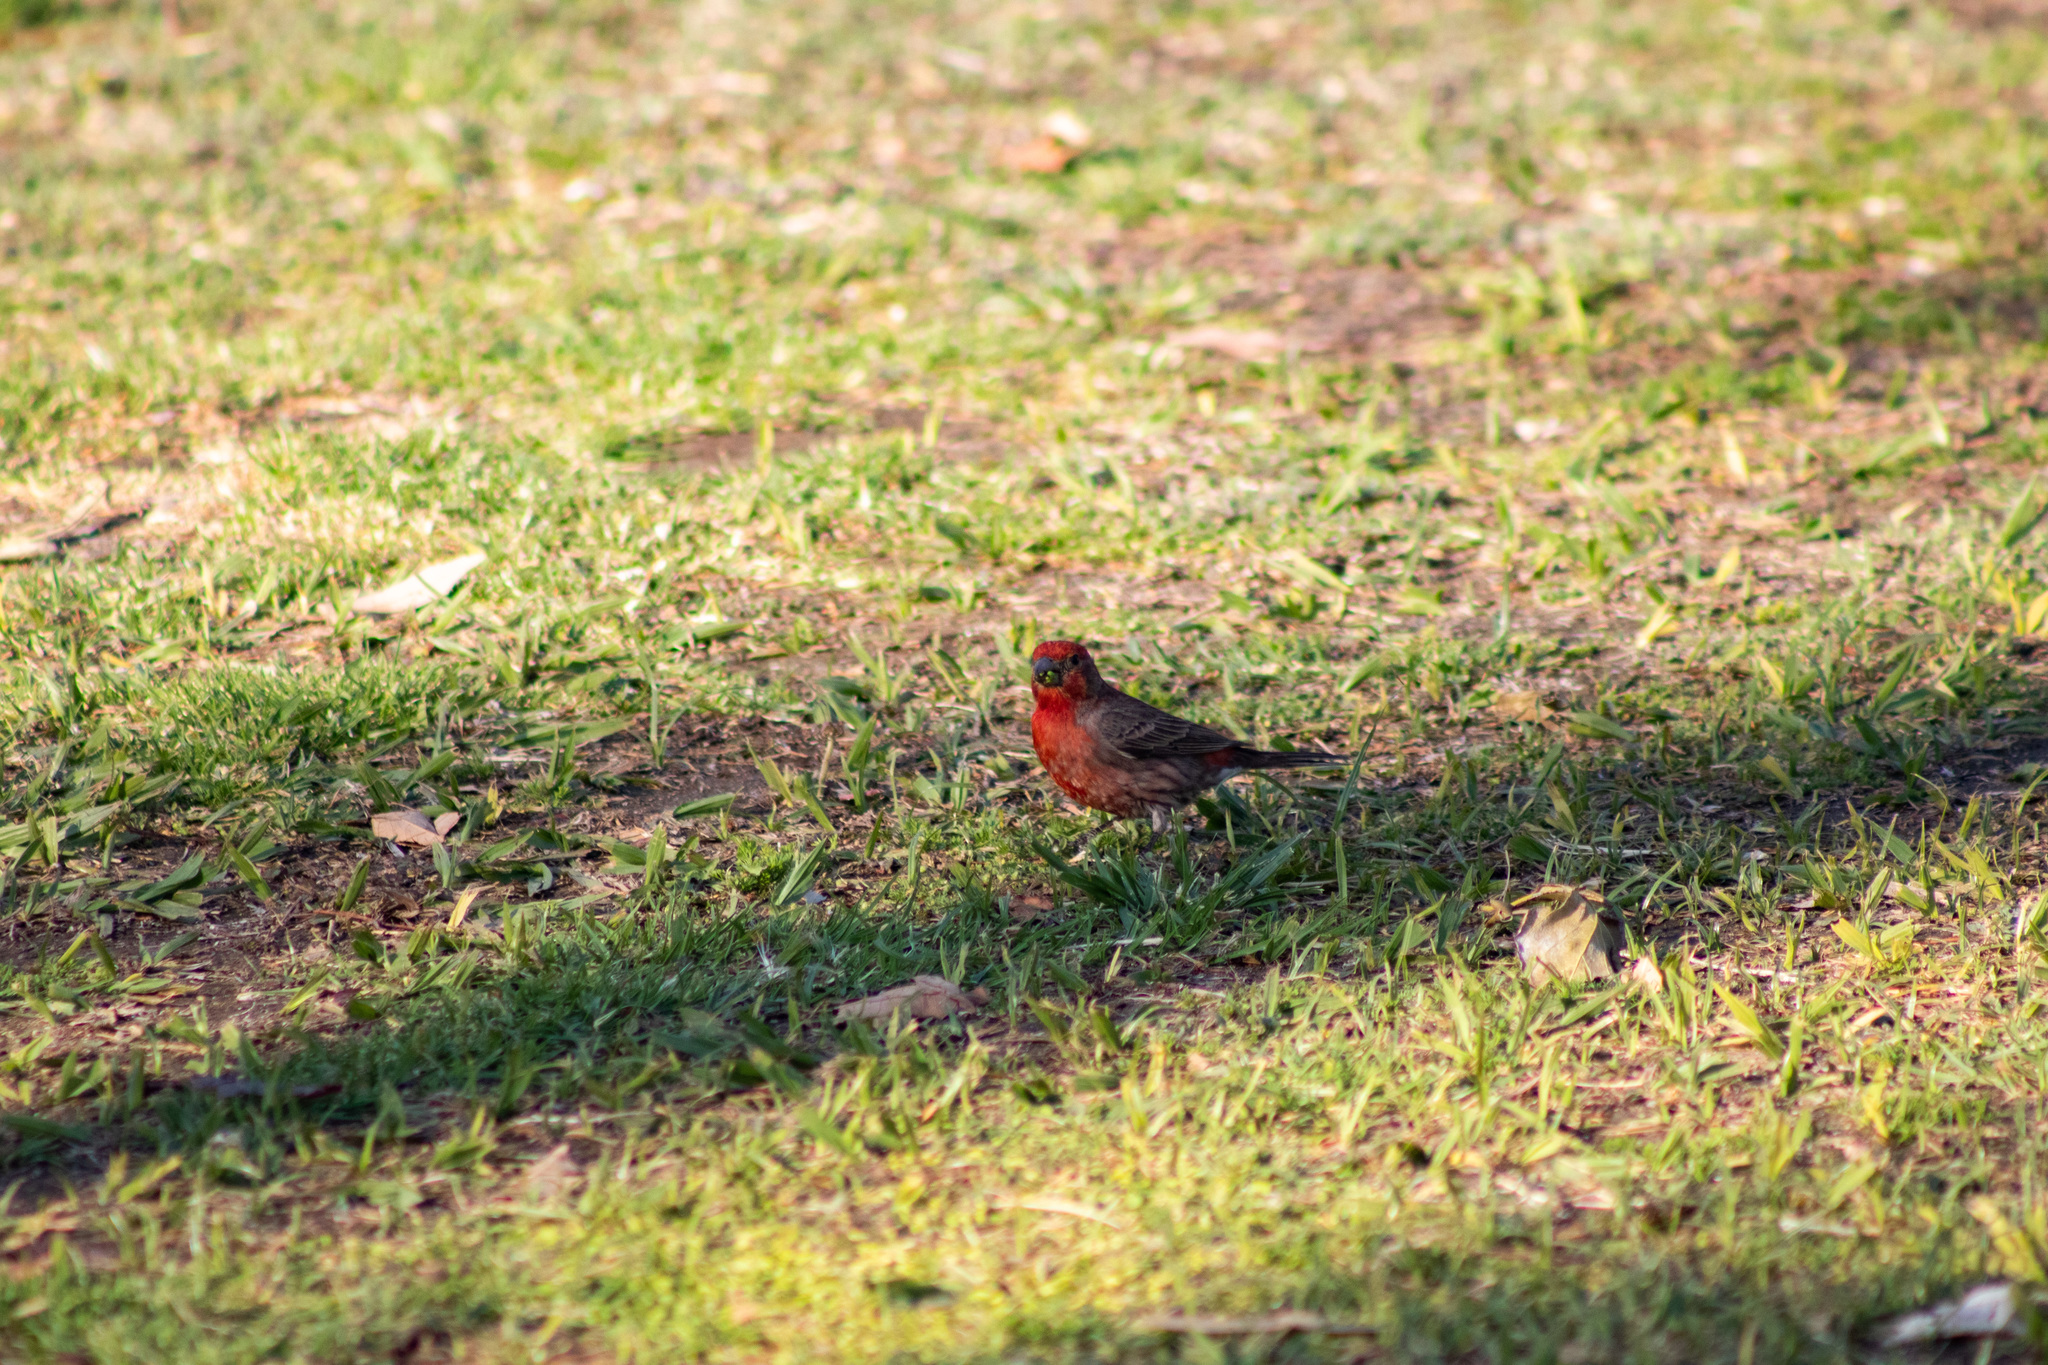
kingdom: Animalia
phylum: Chordata
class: Aves
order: Passeriformes
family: Fringillidae
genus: Haemorhous
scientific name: Haemorhous mexicanus
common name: House finch
